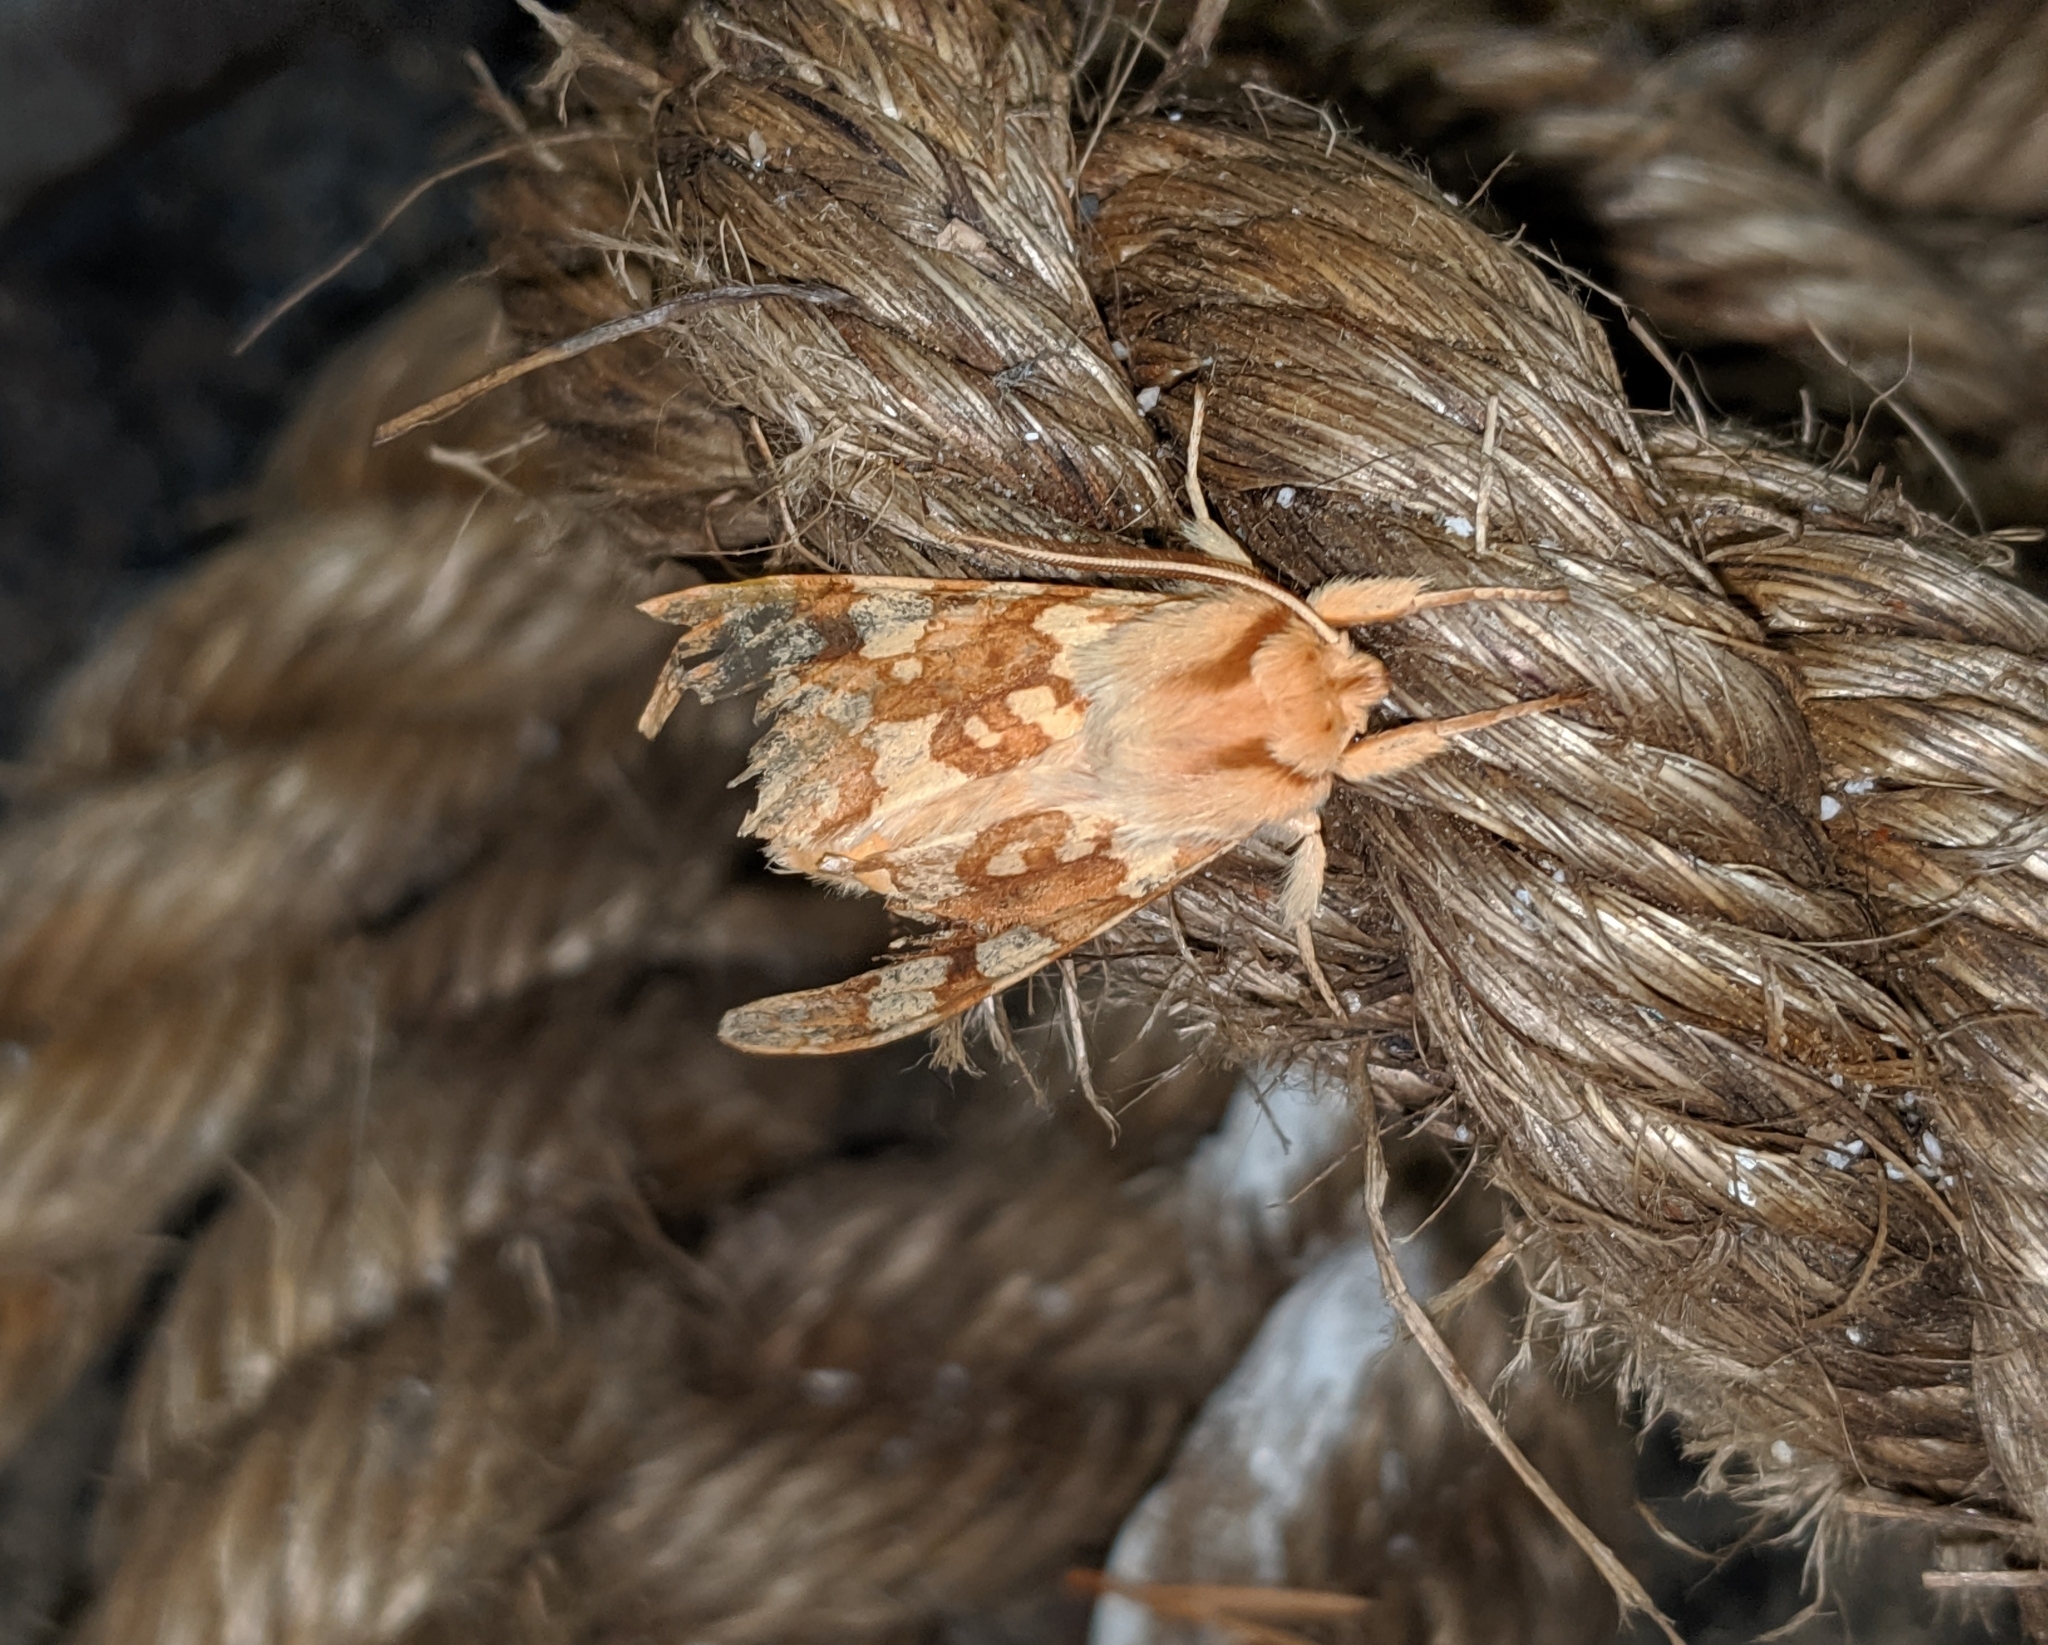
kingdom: Animalia
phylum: Arthropoda
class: Insecta
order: Lepidoptera
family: Erebidae
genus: Lophocampa
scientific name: Lophocampa maculata
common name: Spotted tussock moth
